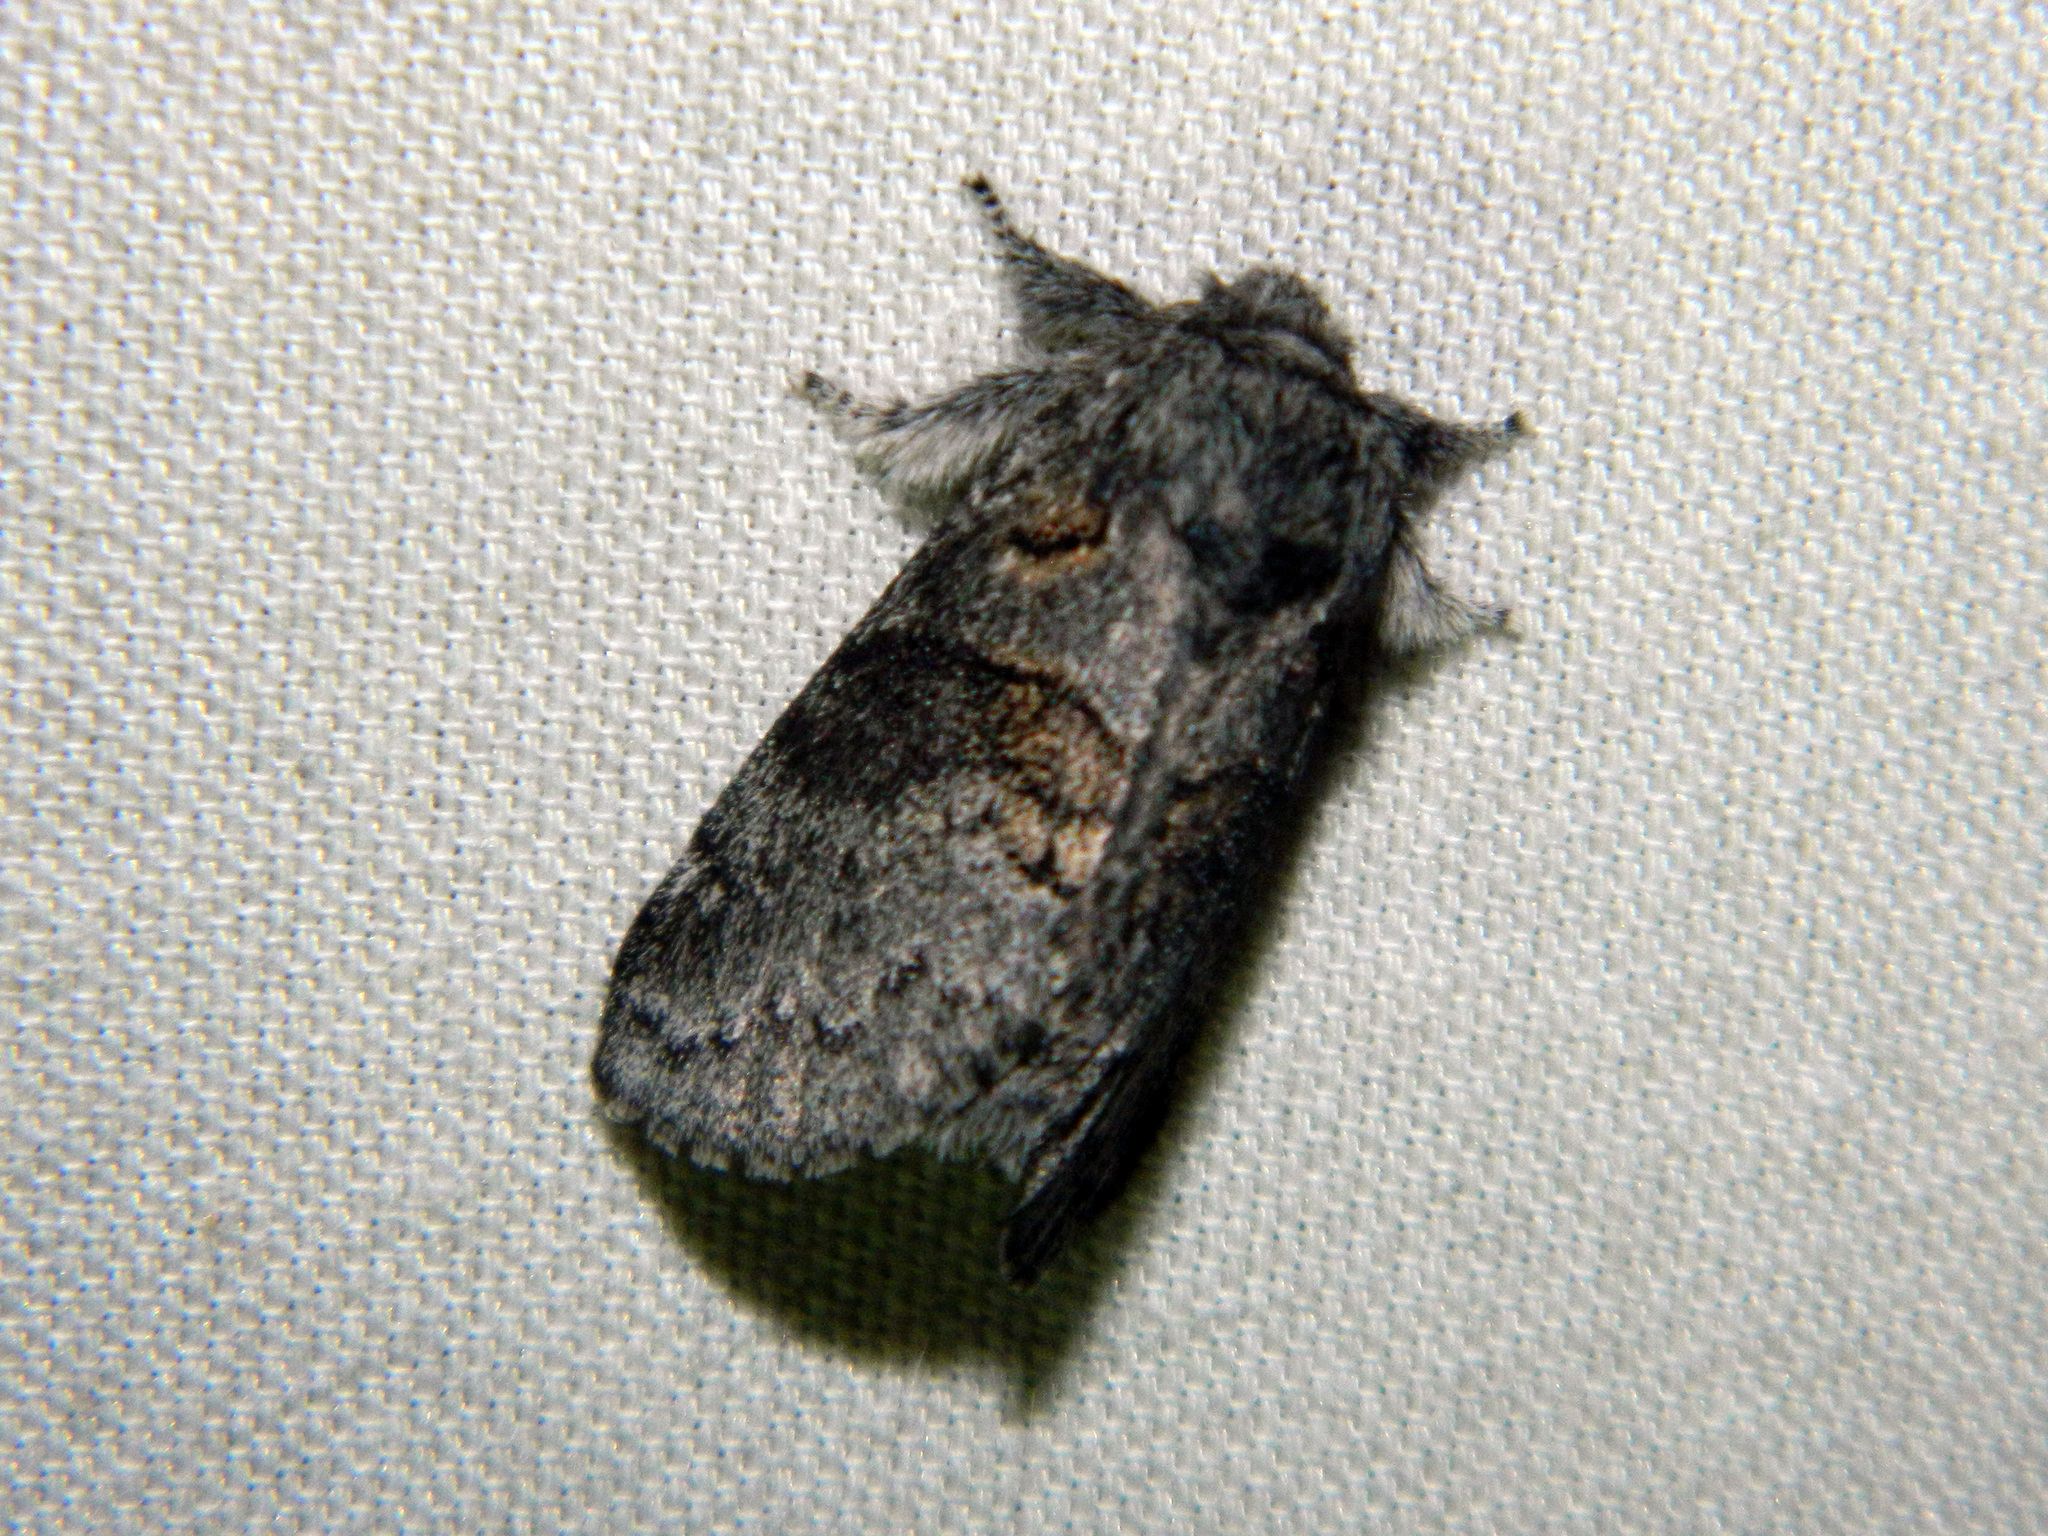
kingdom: Animalia
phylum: Arthropoda
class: Insecta
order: Lepidoptera
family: Notodontidae
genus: Gluphisia
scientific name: Gluphisia septentrionis
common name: Common gluphisia
